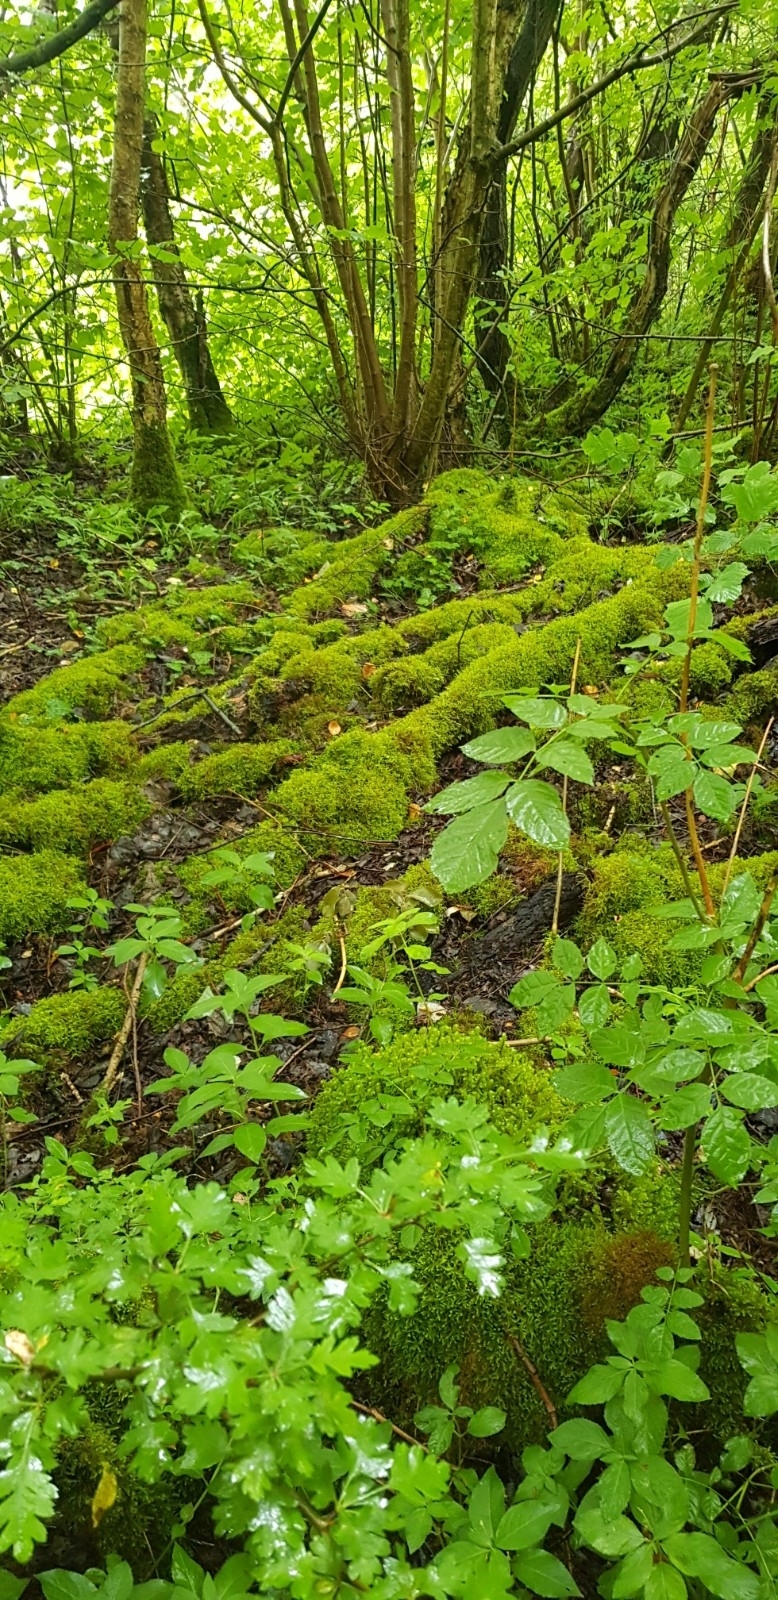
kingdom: Plantae
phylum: Bryophyta
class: Bryopsida
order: Hypnales
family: Brachytheciaceae
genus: Eurhynchium
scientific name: Eurhynchium striatum
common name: Common striated feather-moss
